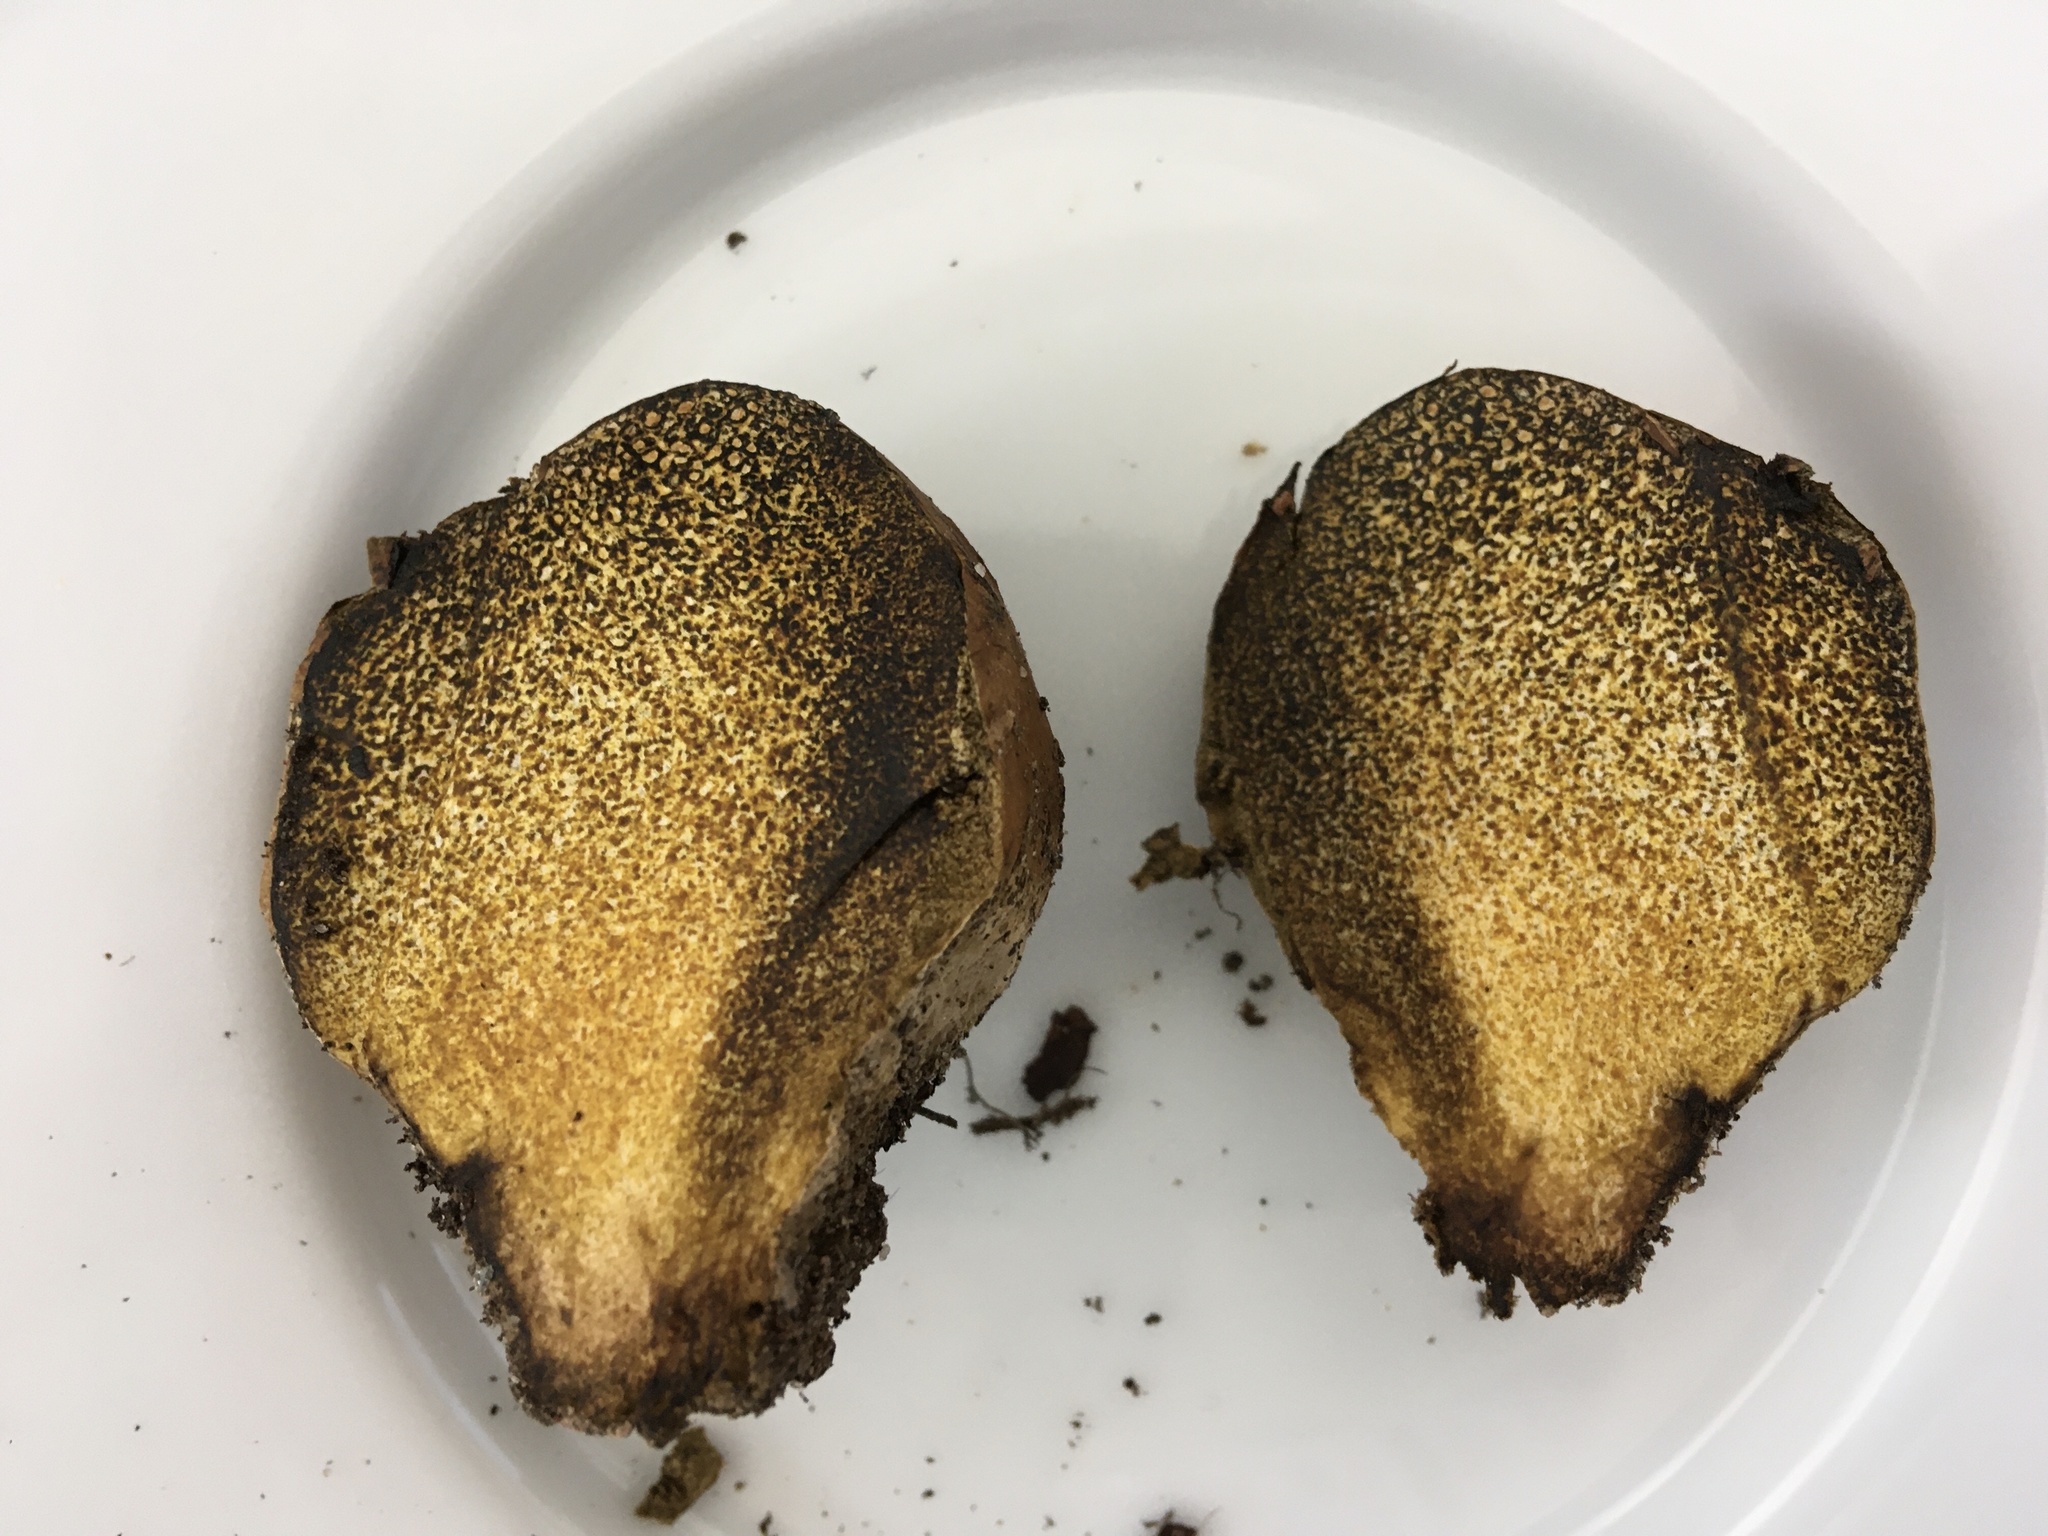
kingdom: Fungi
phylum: Basidiomycota
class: Agaricomycetes
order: Boletales
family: Sclerodermataceae
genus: Pisolithus
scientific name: Pisolithus arhizus
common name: Dyeball
